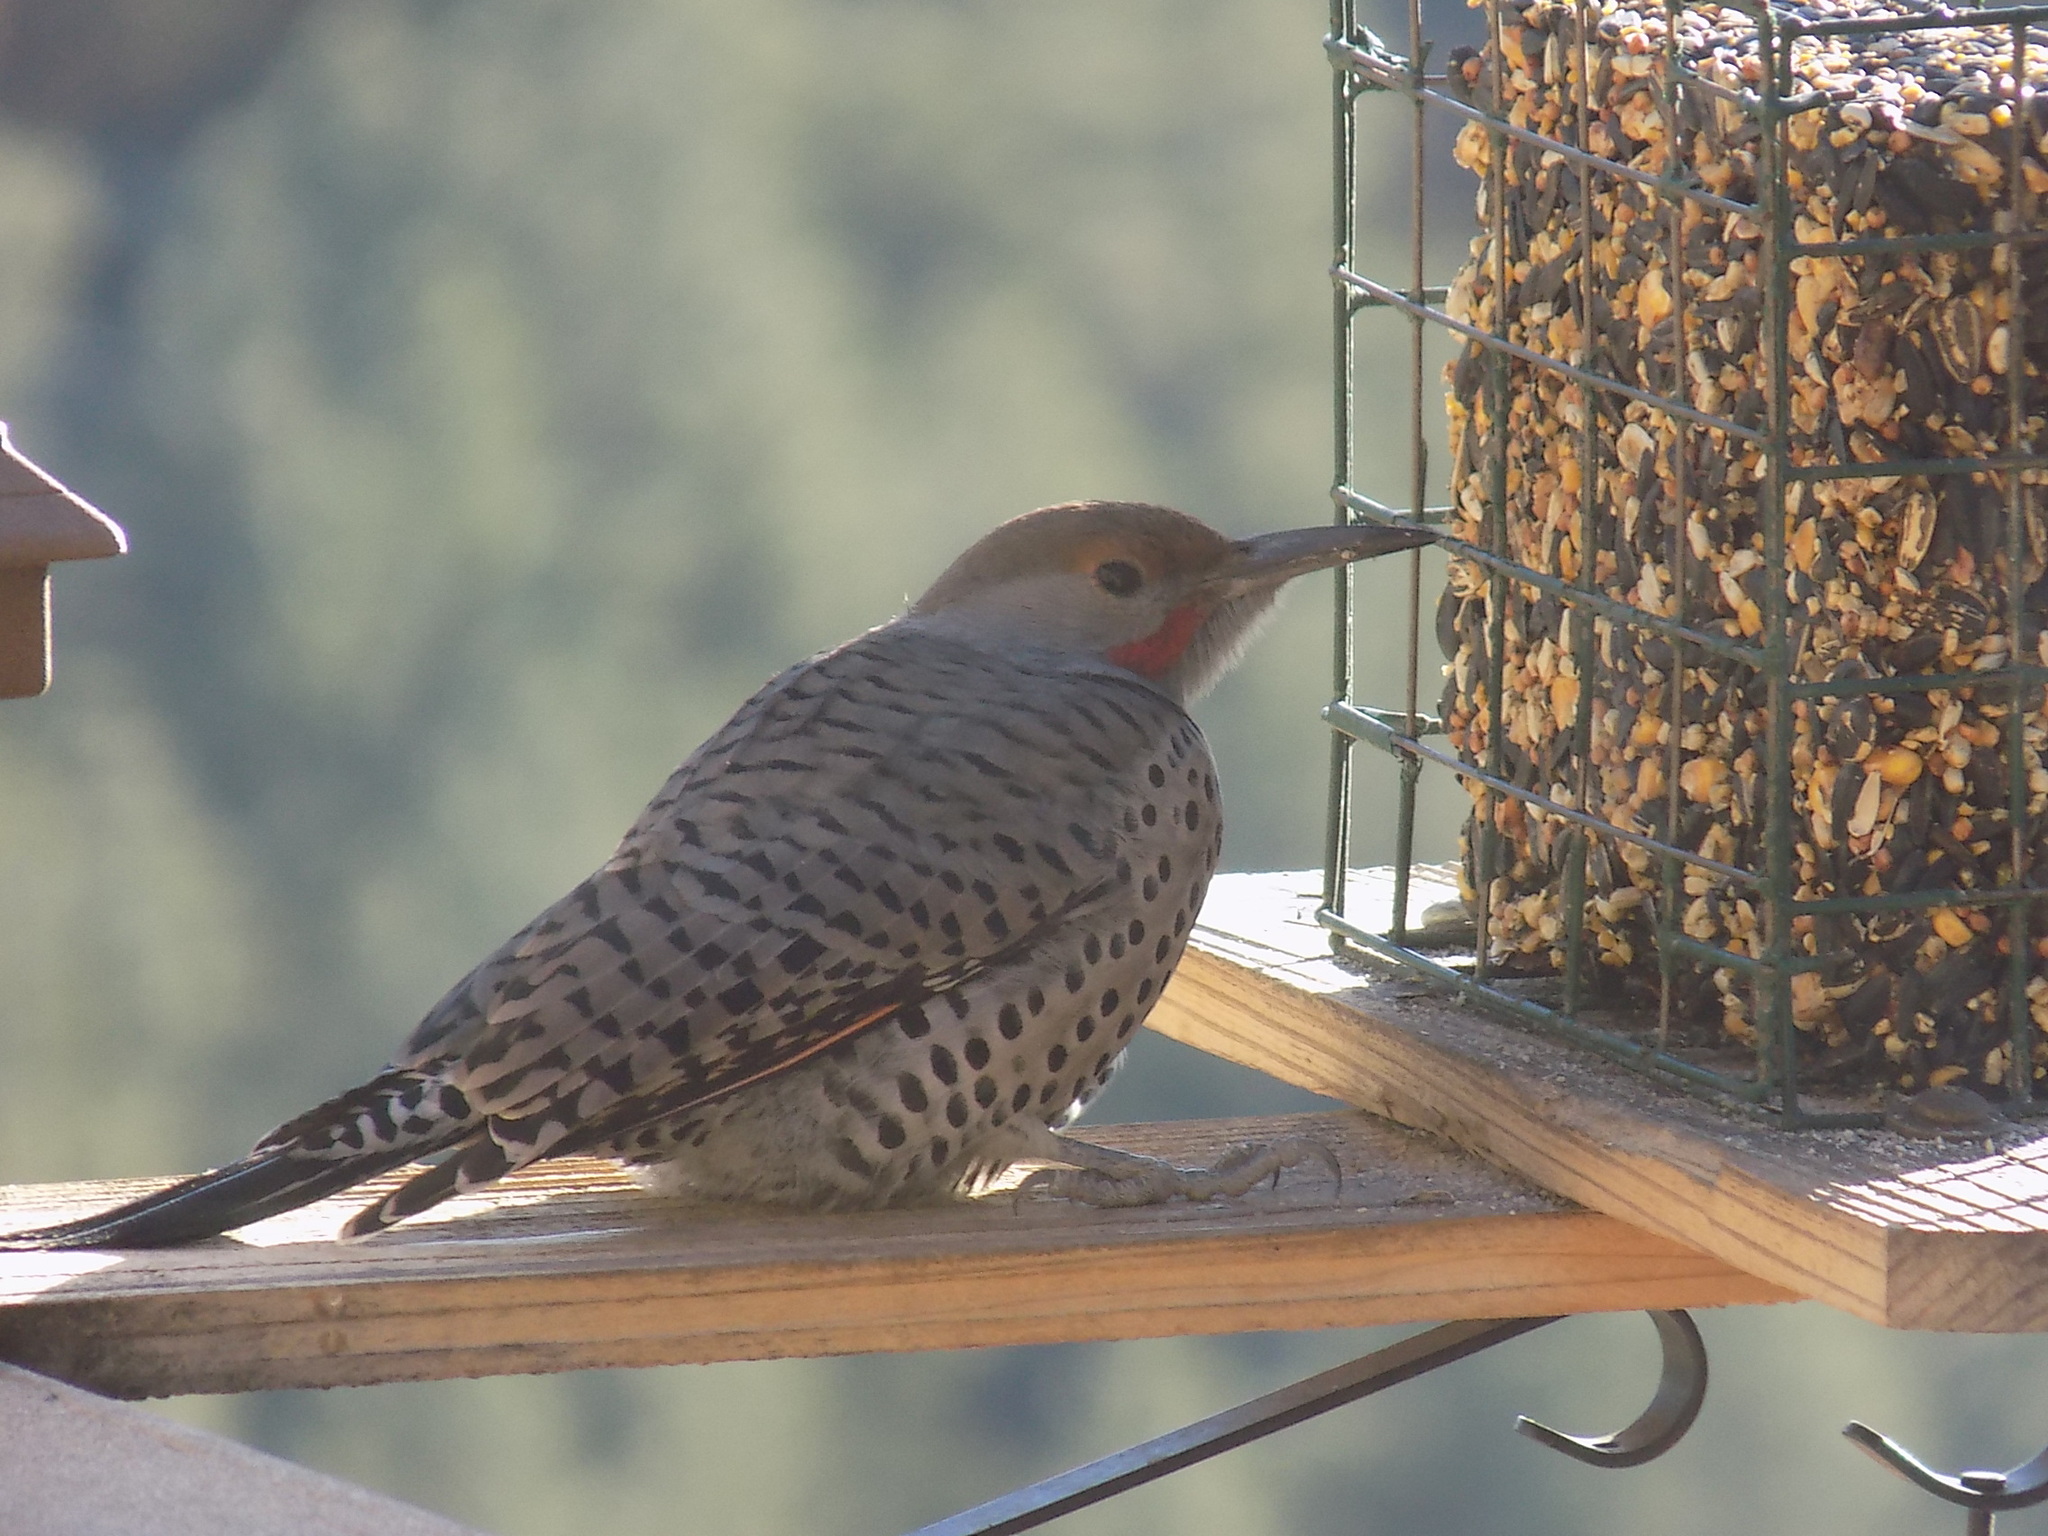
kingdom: Animalia
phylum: Chordata
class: Aves
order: Piciformes
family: Picidae
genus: Colaptes
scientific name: Colaptes auratus
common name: Northern flicker
